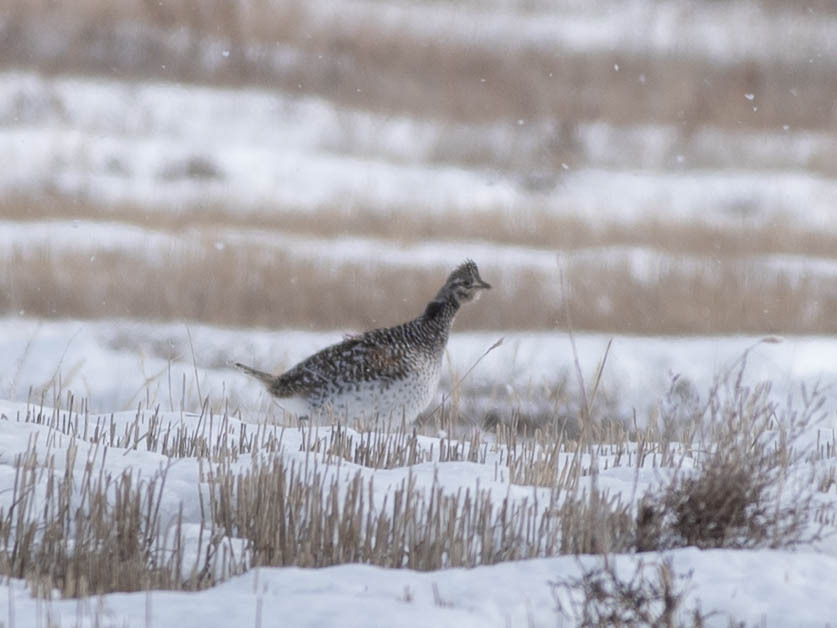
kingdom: Animalia
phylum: Chordata
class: Aves
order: Galliformes
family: Phasianidae
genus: Tympanuchus
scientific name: Tympanuchus phasianellus
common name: Sharp-tailed grouse
